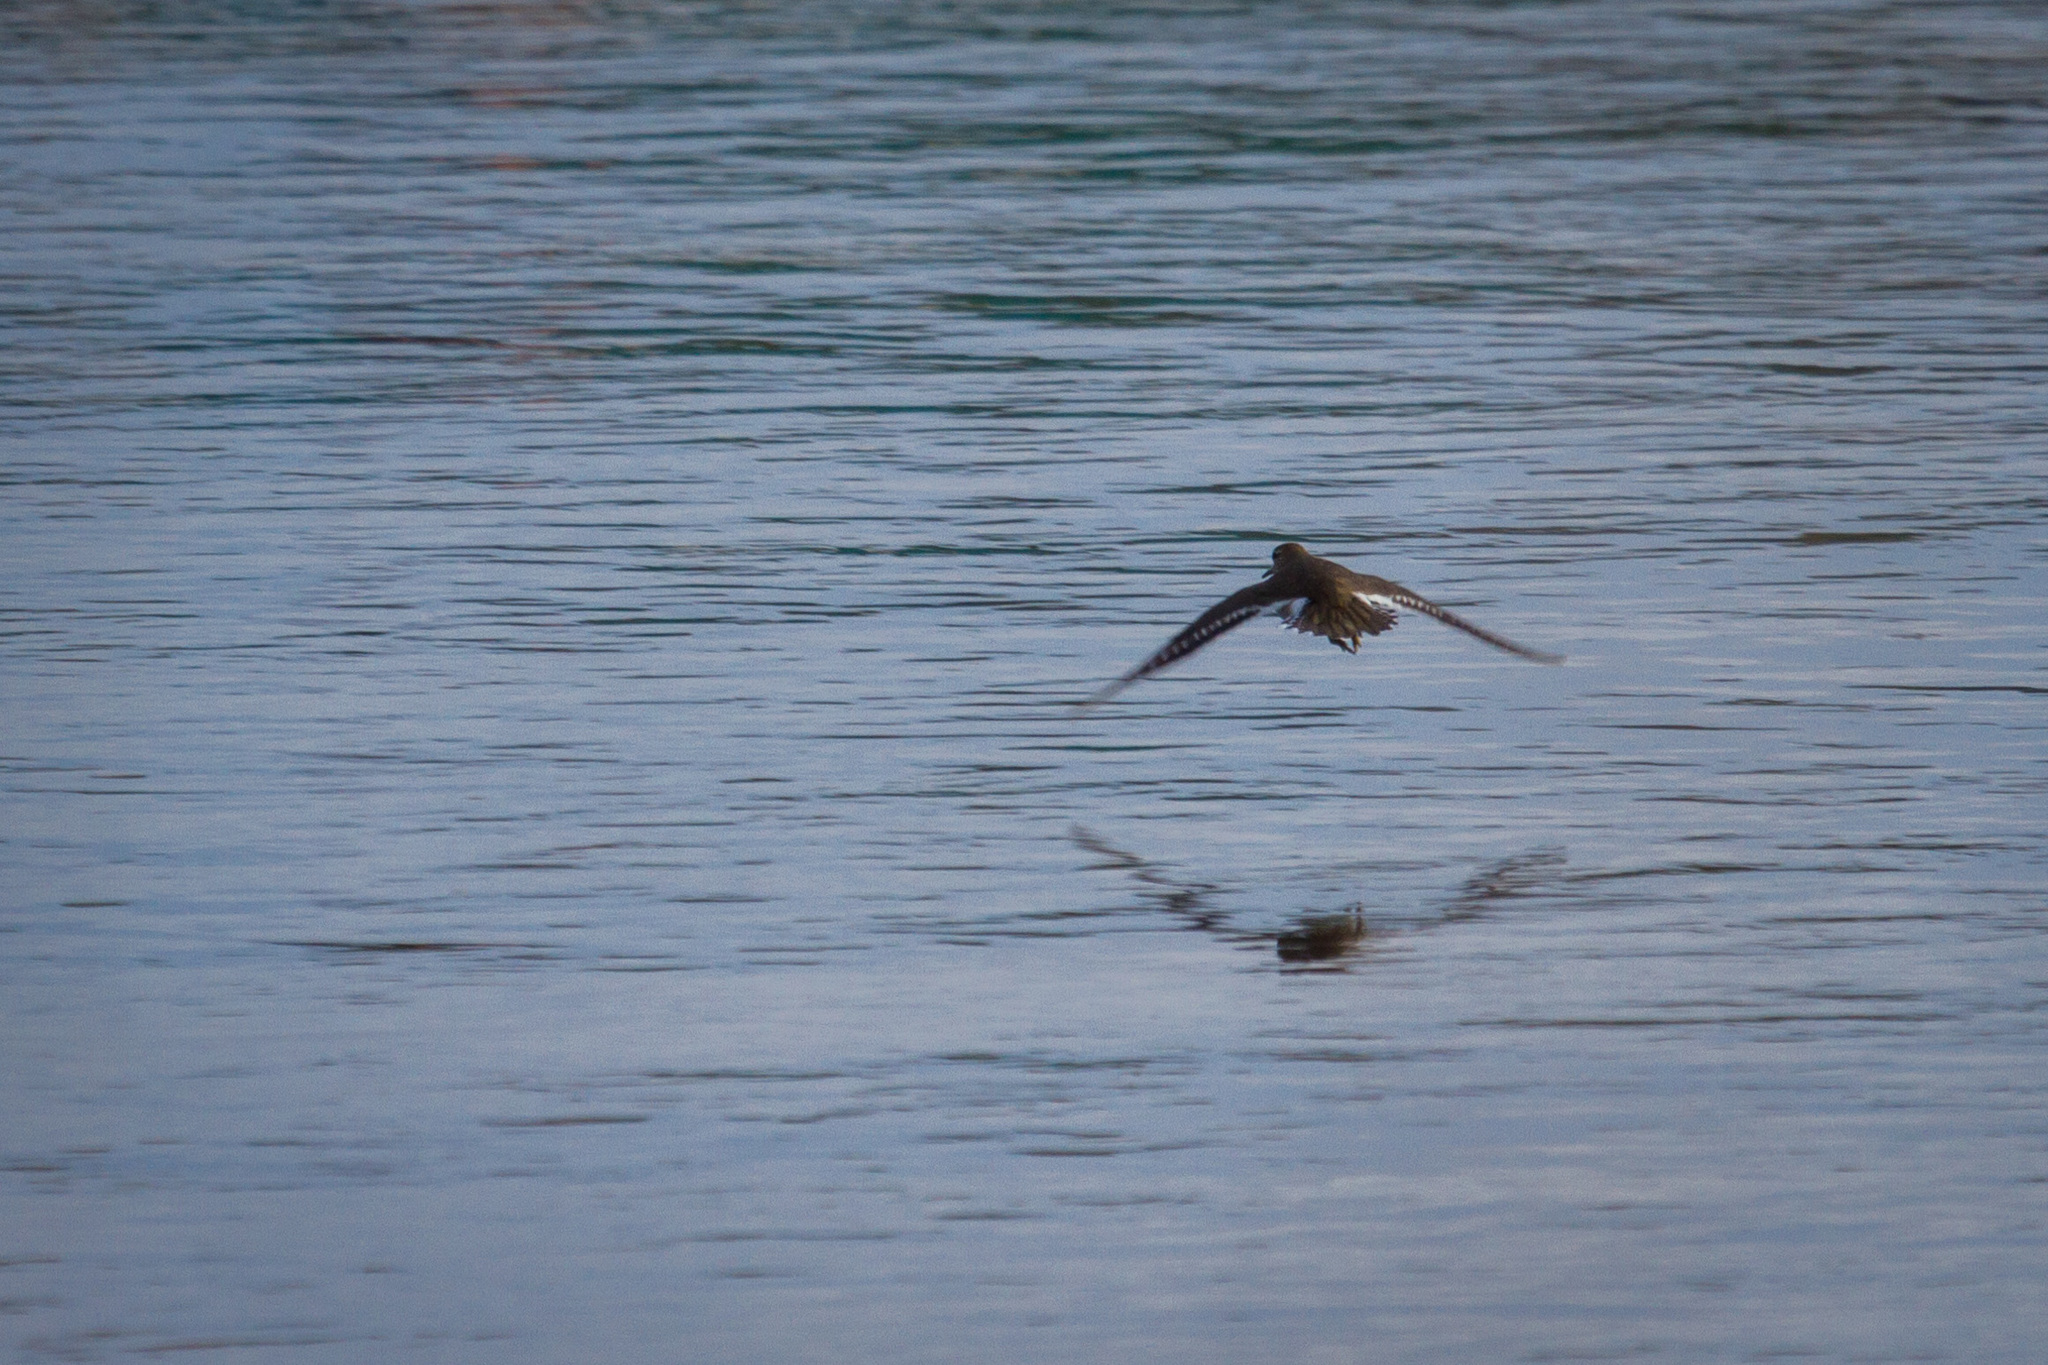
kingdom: Animalia
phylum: Chordata
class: Aves
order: Charadriiformes
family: Scolopacidae
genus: Actitis
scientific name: Actitis hypoleucos
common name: Common sandpiper
